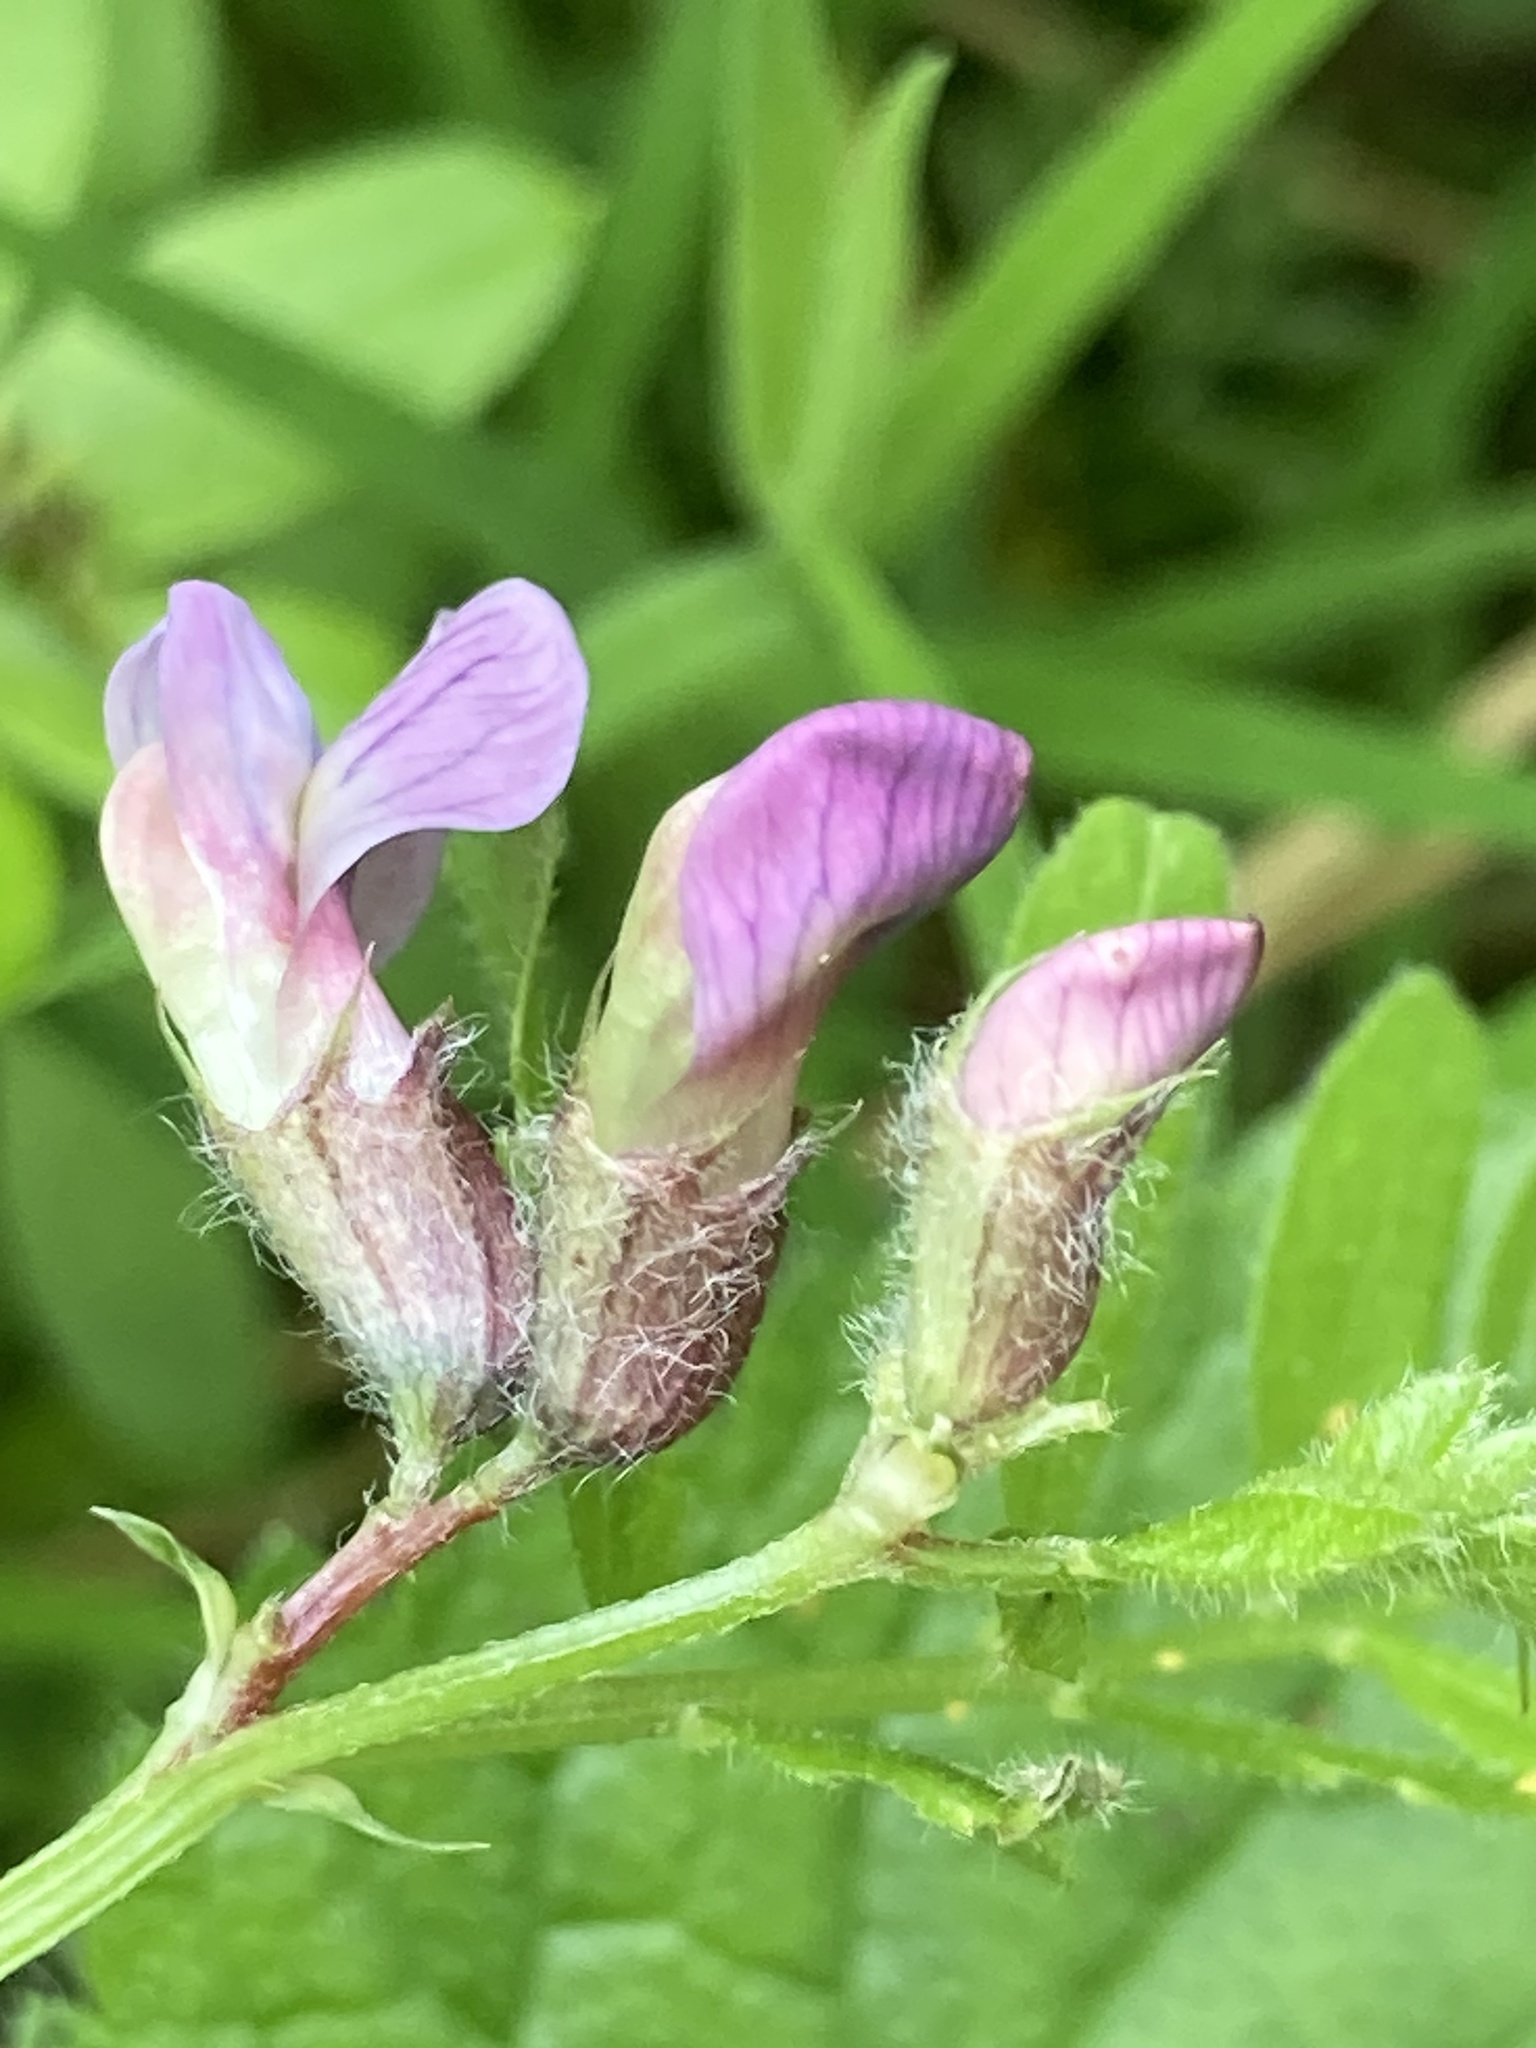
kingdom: Plantae
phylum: Tracheophyta
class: Magnoliopsida
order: Fabales
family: Fabaceae
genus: Vicia
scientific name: Vicia sativa
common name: Garden vetch
